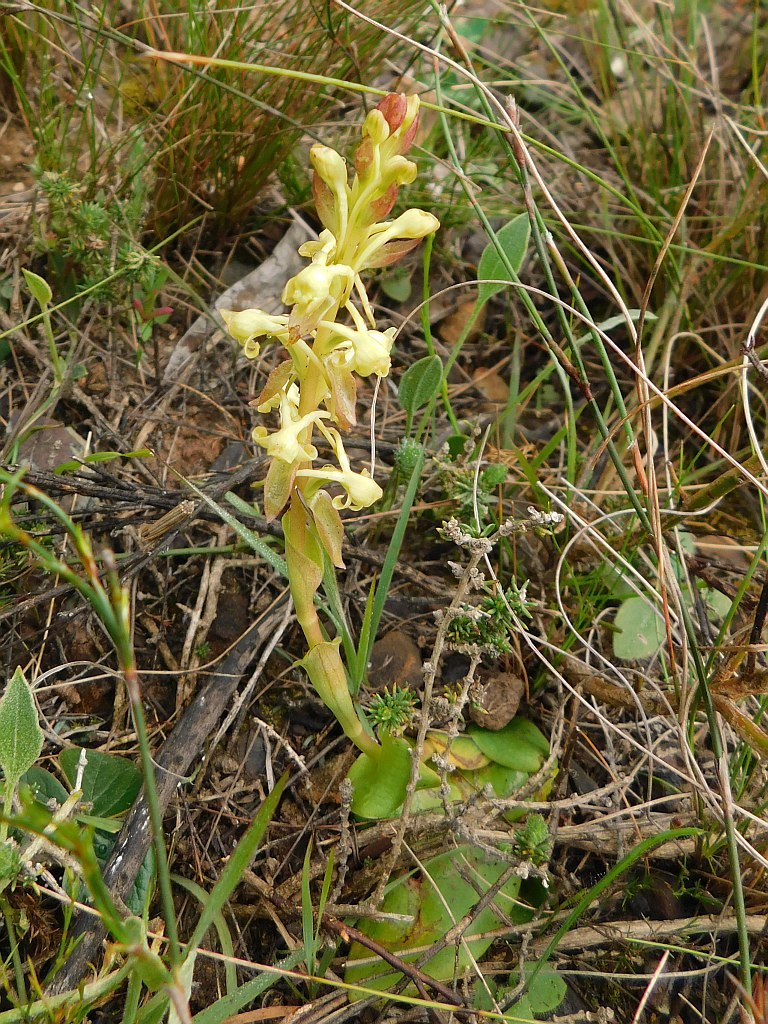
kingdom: Plantae
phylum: Tracheophyta
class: Liliopsida
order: Asparagales
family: Orchidaceae
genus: Satyrium
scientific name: Satyrium humile
